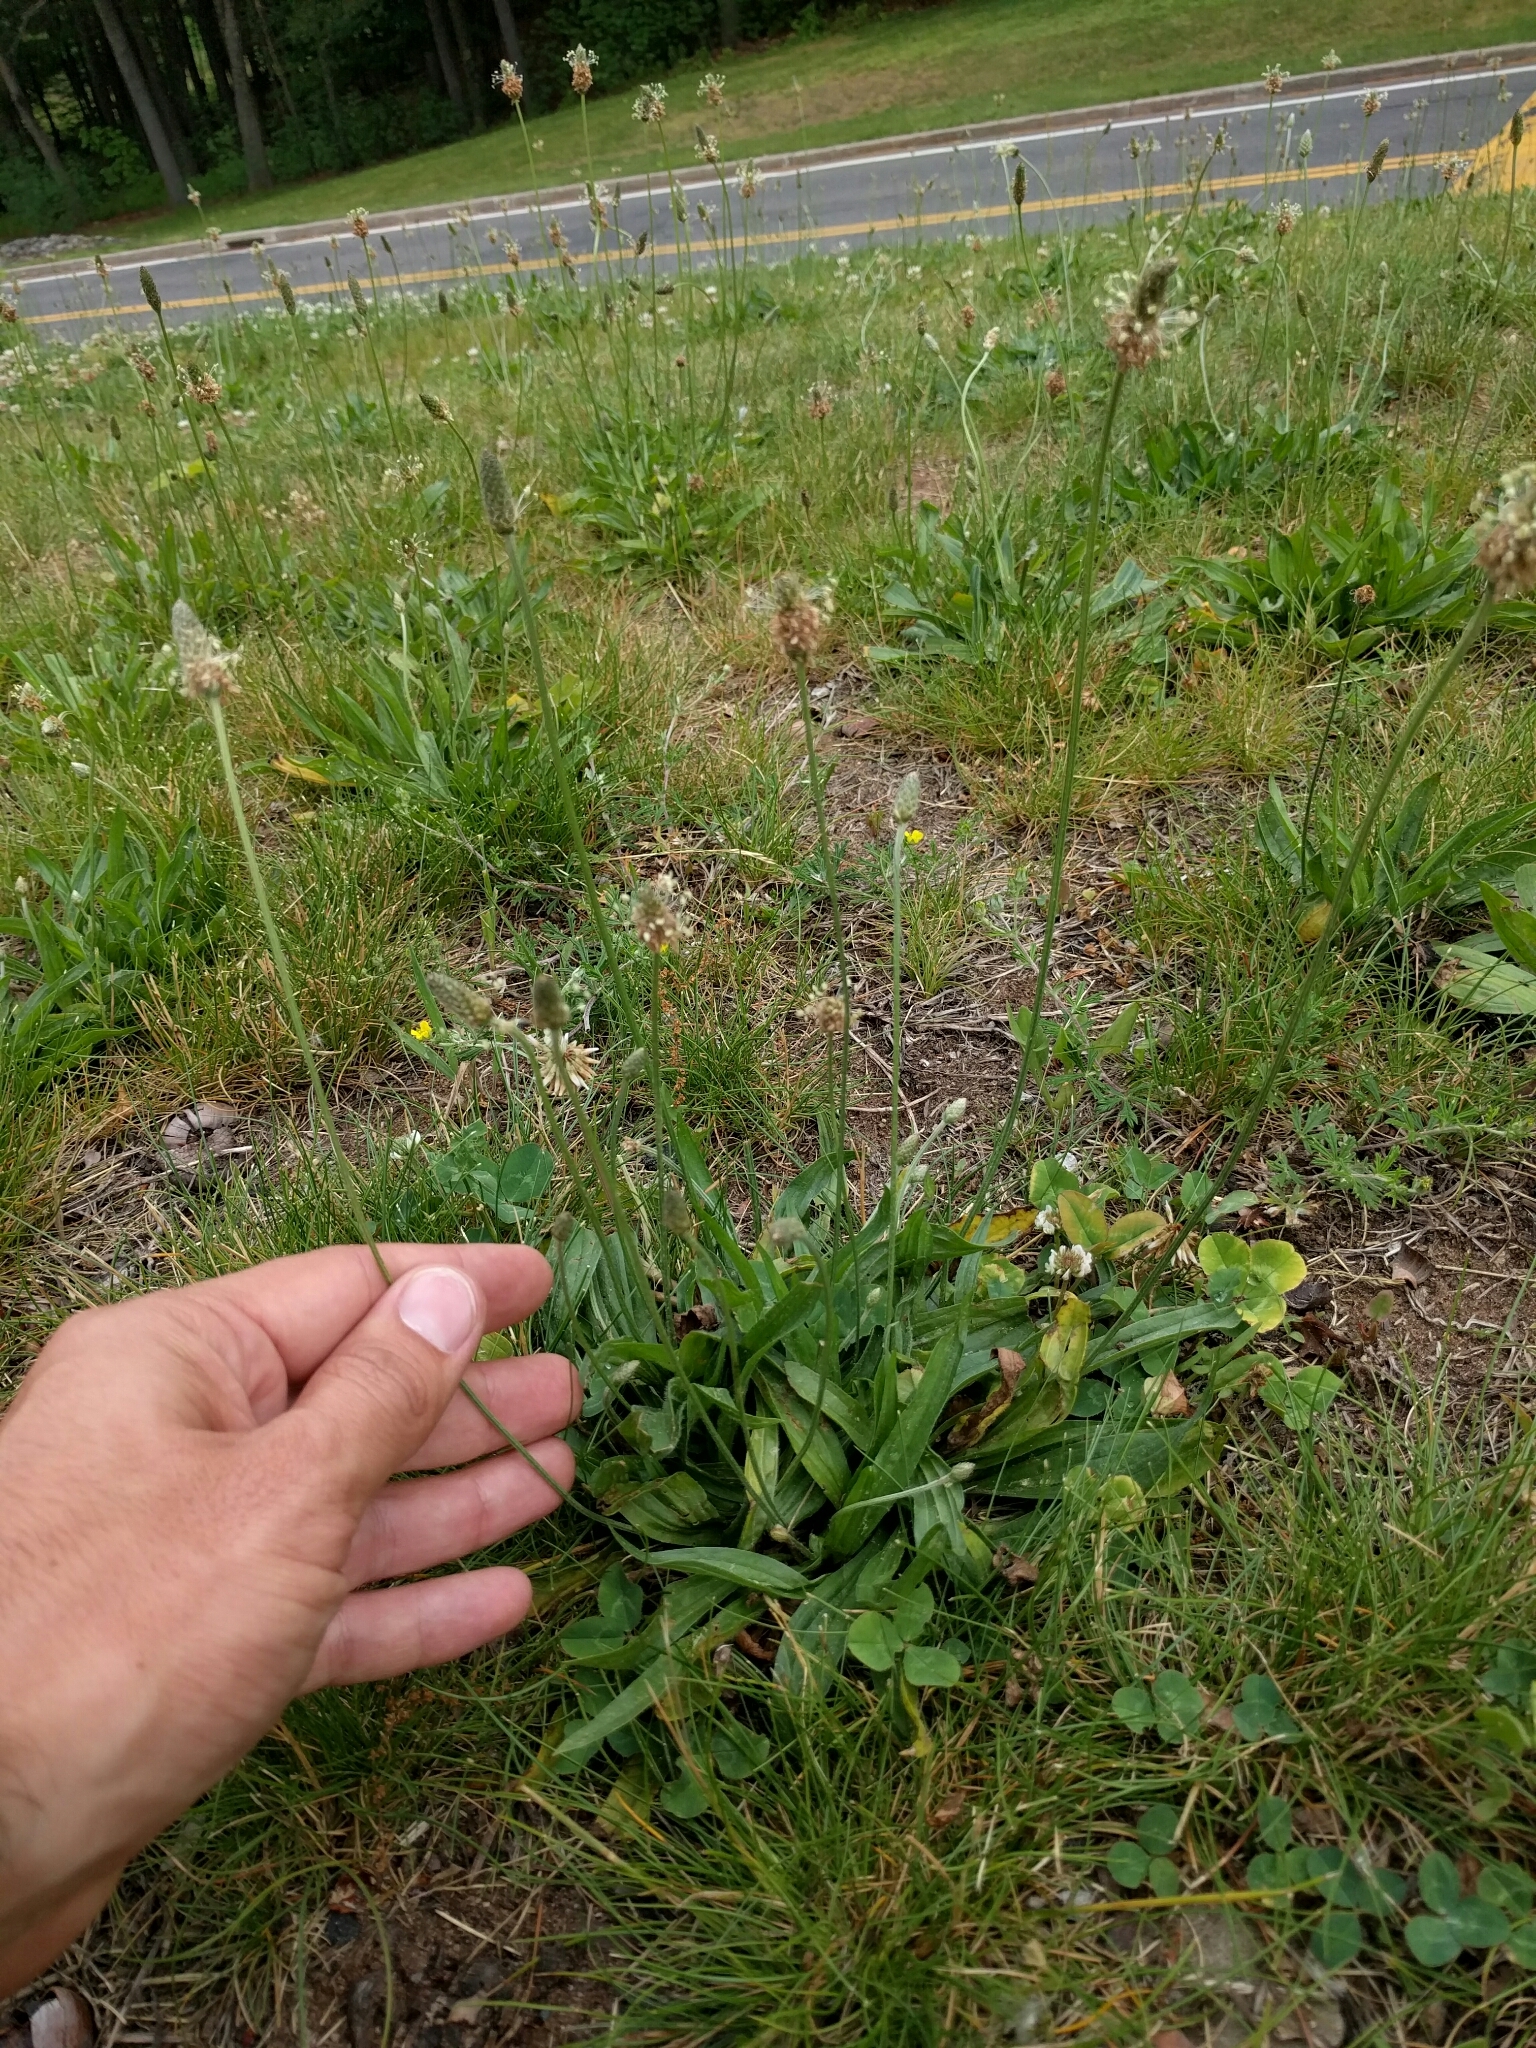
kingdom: Plantae
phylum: Tracheophyta
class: Magnoliopsida
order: Lamiales
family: Plantaginaceae
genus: Plantago
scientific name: Plantago lanceolata
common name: Ribwort plantain
